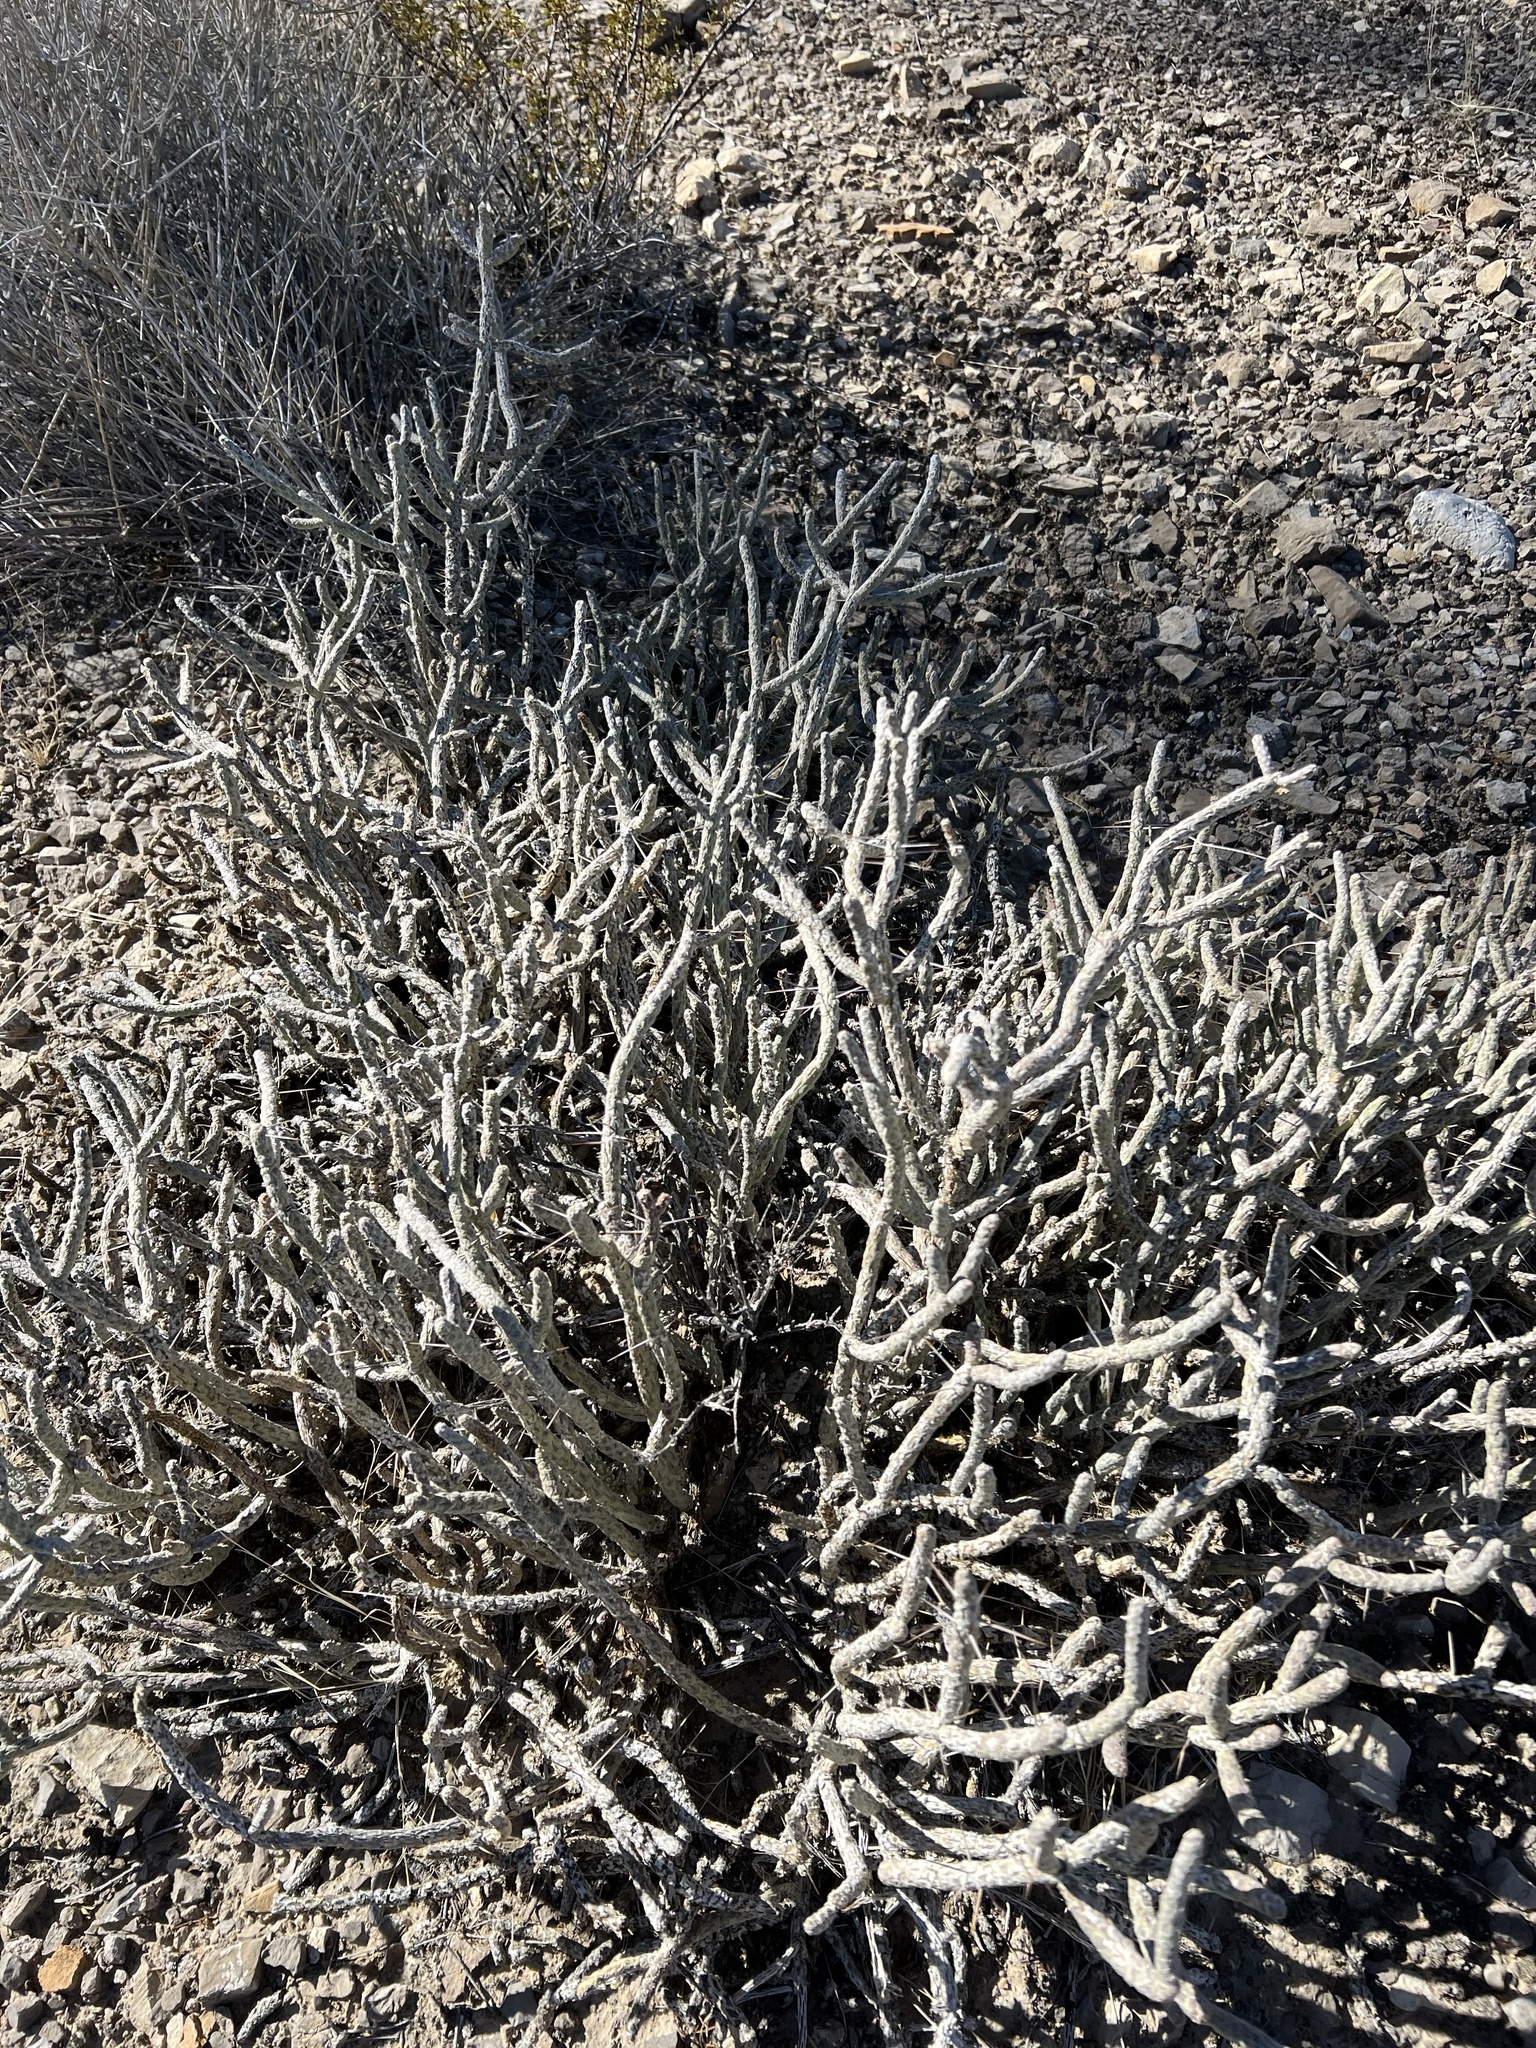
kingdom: Plantae
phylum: Tracheophyta
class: Magnoliopsida
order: Caryophyllales
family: Cactaceae
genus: Cylindropuntia
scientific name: Cylindropuntia ramosissima
